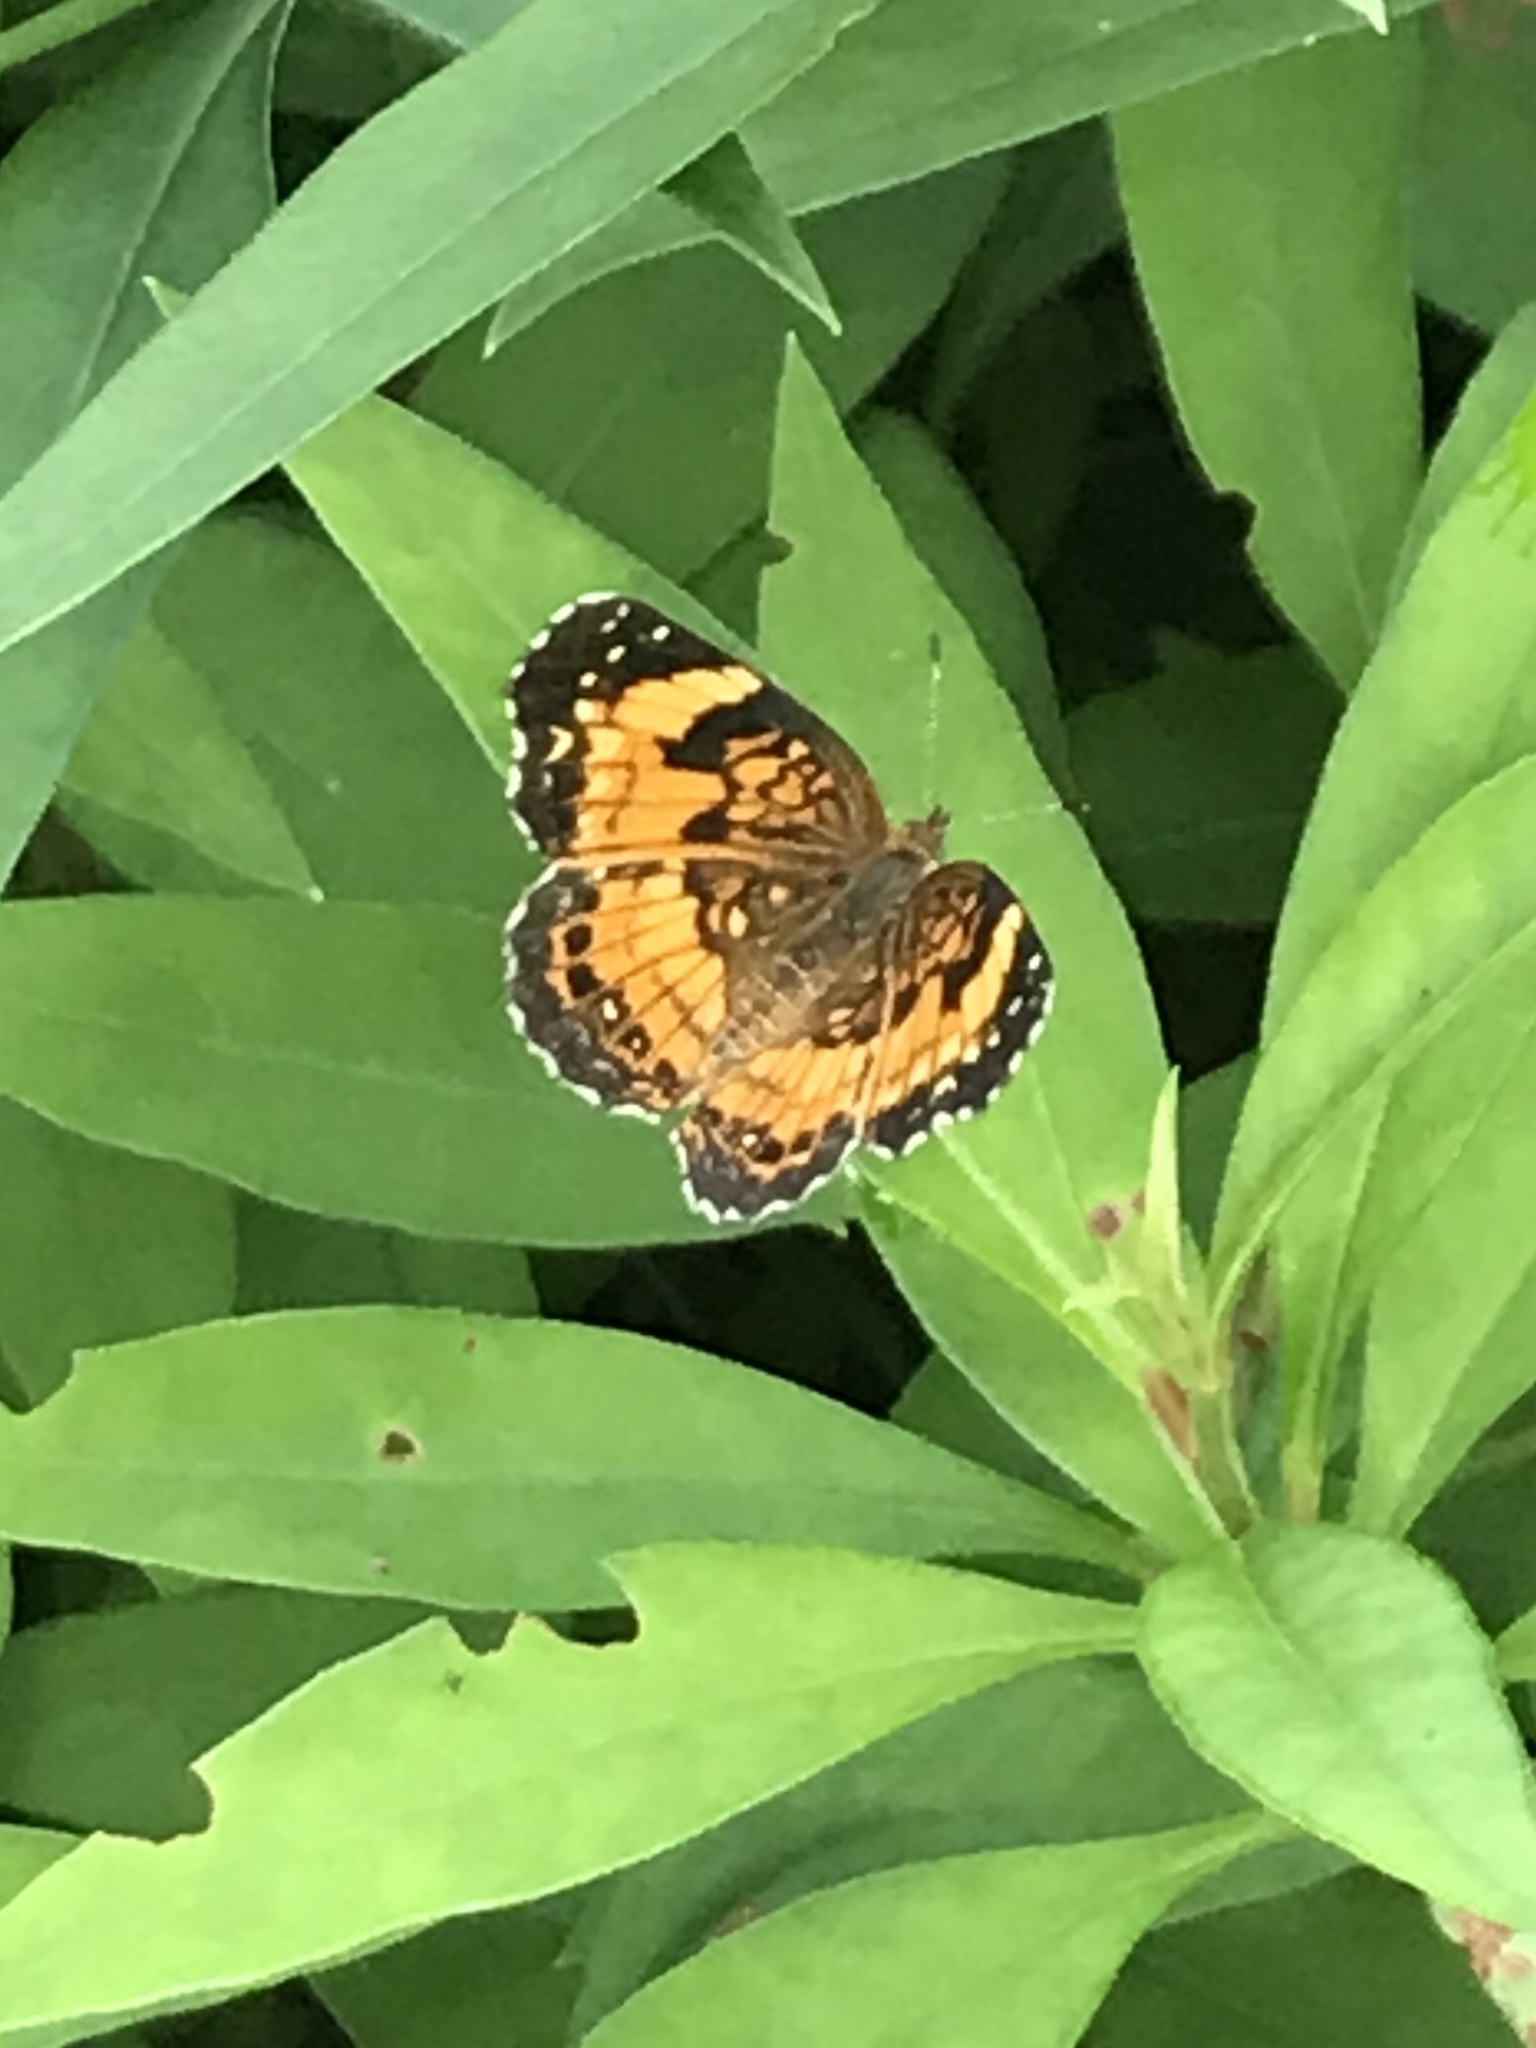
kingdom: Animalia
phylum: Arthropoda
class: Insecta
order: Lepidoptera
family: Nymphalidae
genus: Chlosyne
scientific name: Chlosyne nycteis
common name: Silvery checkerspot
